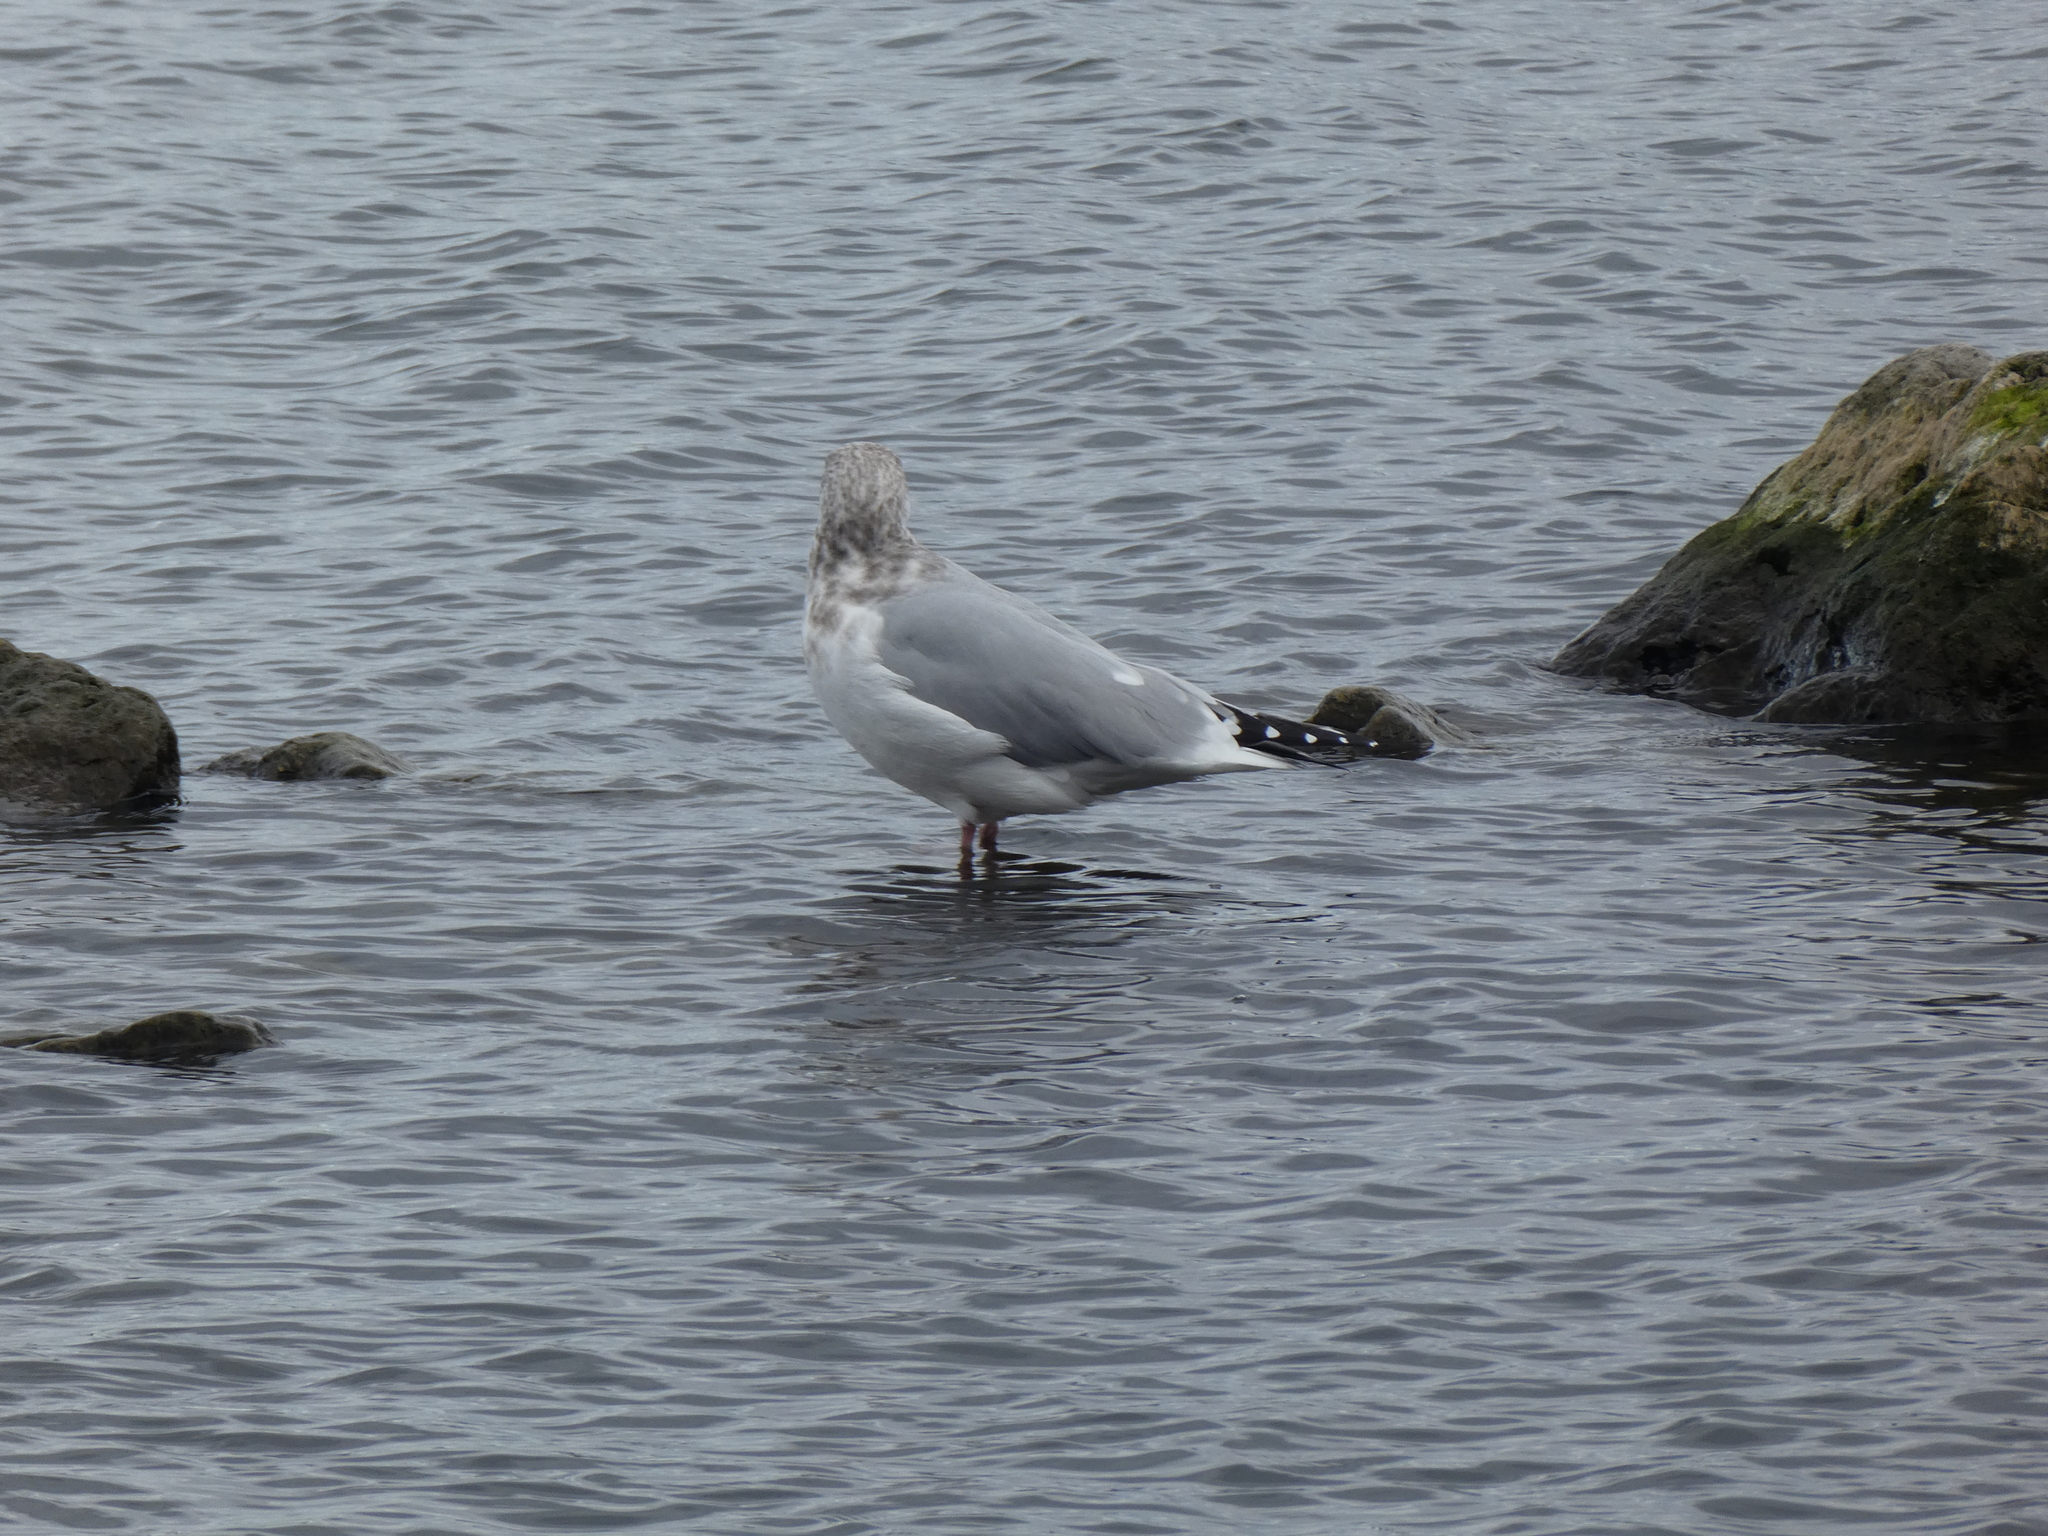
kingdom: Animalia
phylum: Chordata
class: Aves
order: Charadriiformes
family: Laridae
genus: Larus
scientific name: Larus argentatus
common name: Herring gull
